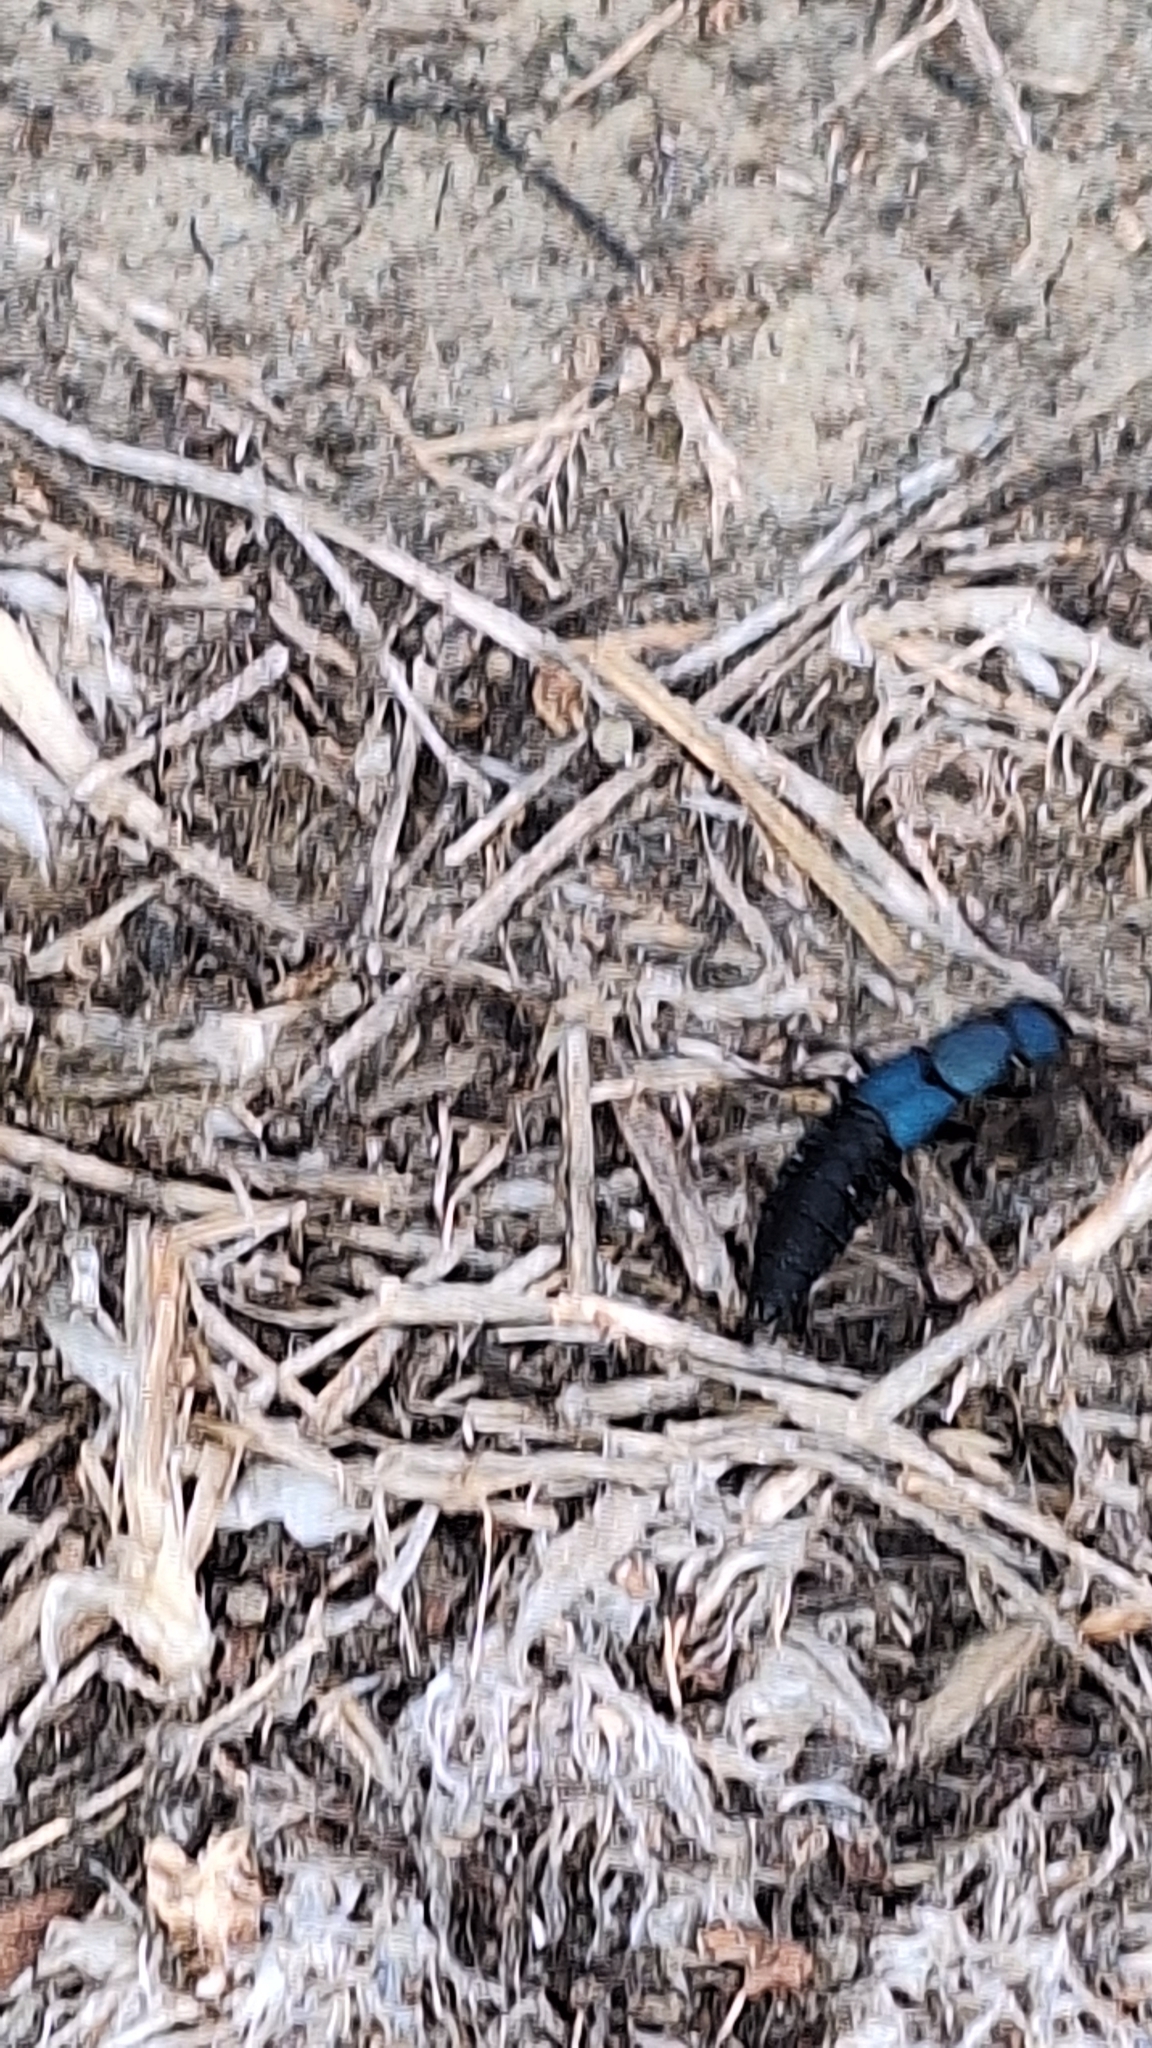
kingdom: Animalia
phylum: Arthropoda
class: Insecta
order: Coleoptera
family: Staphylinidae
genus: Ocypus
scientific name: Ocypus ophthalmicus
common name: Blue rove-beetle
